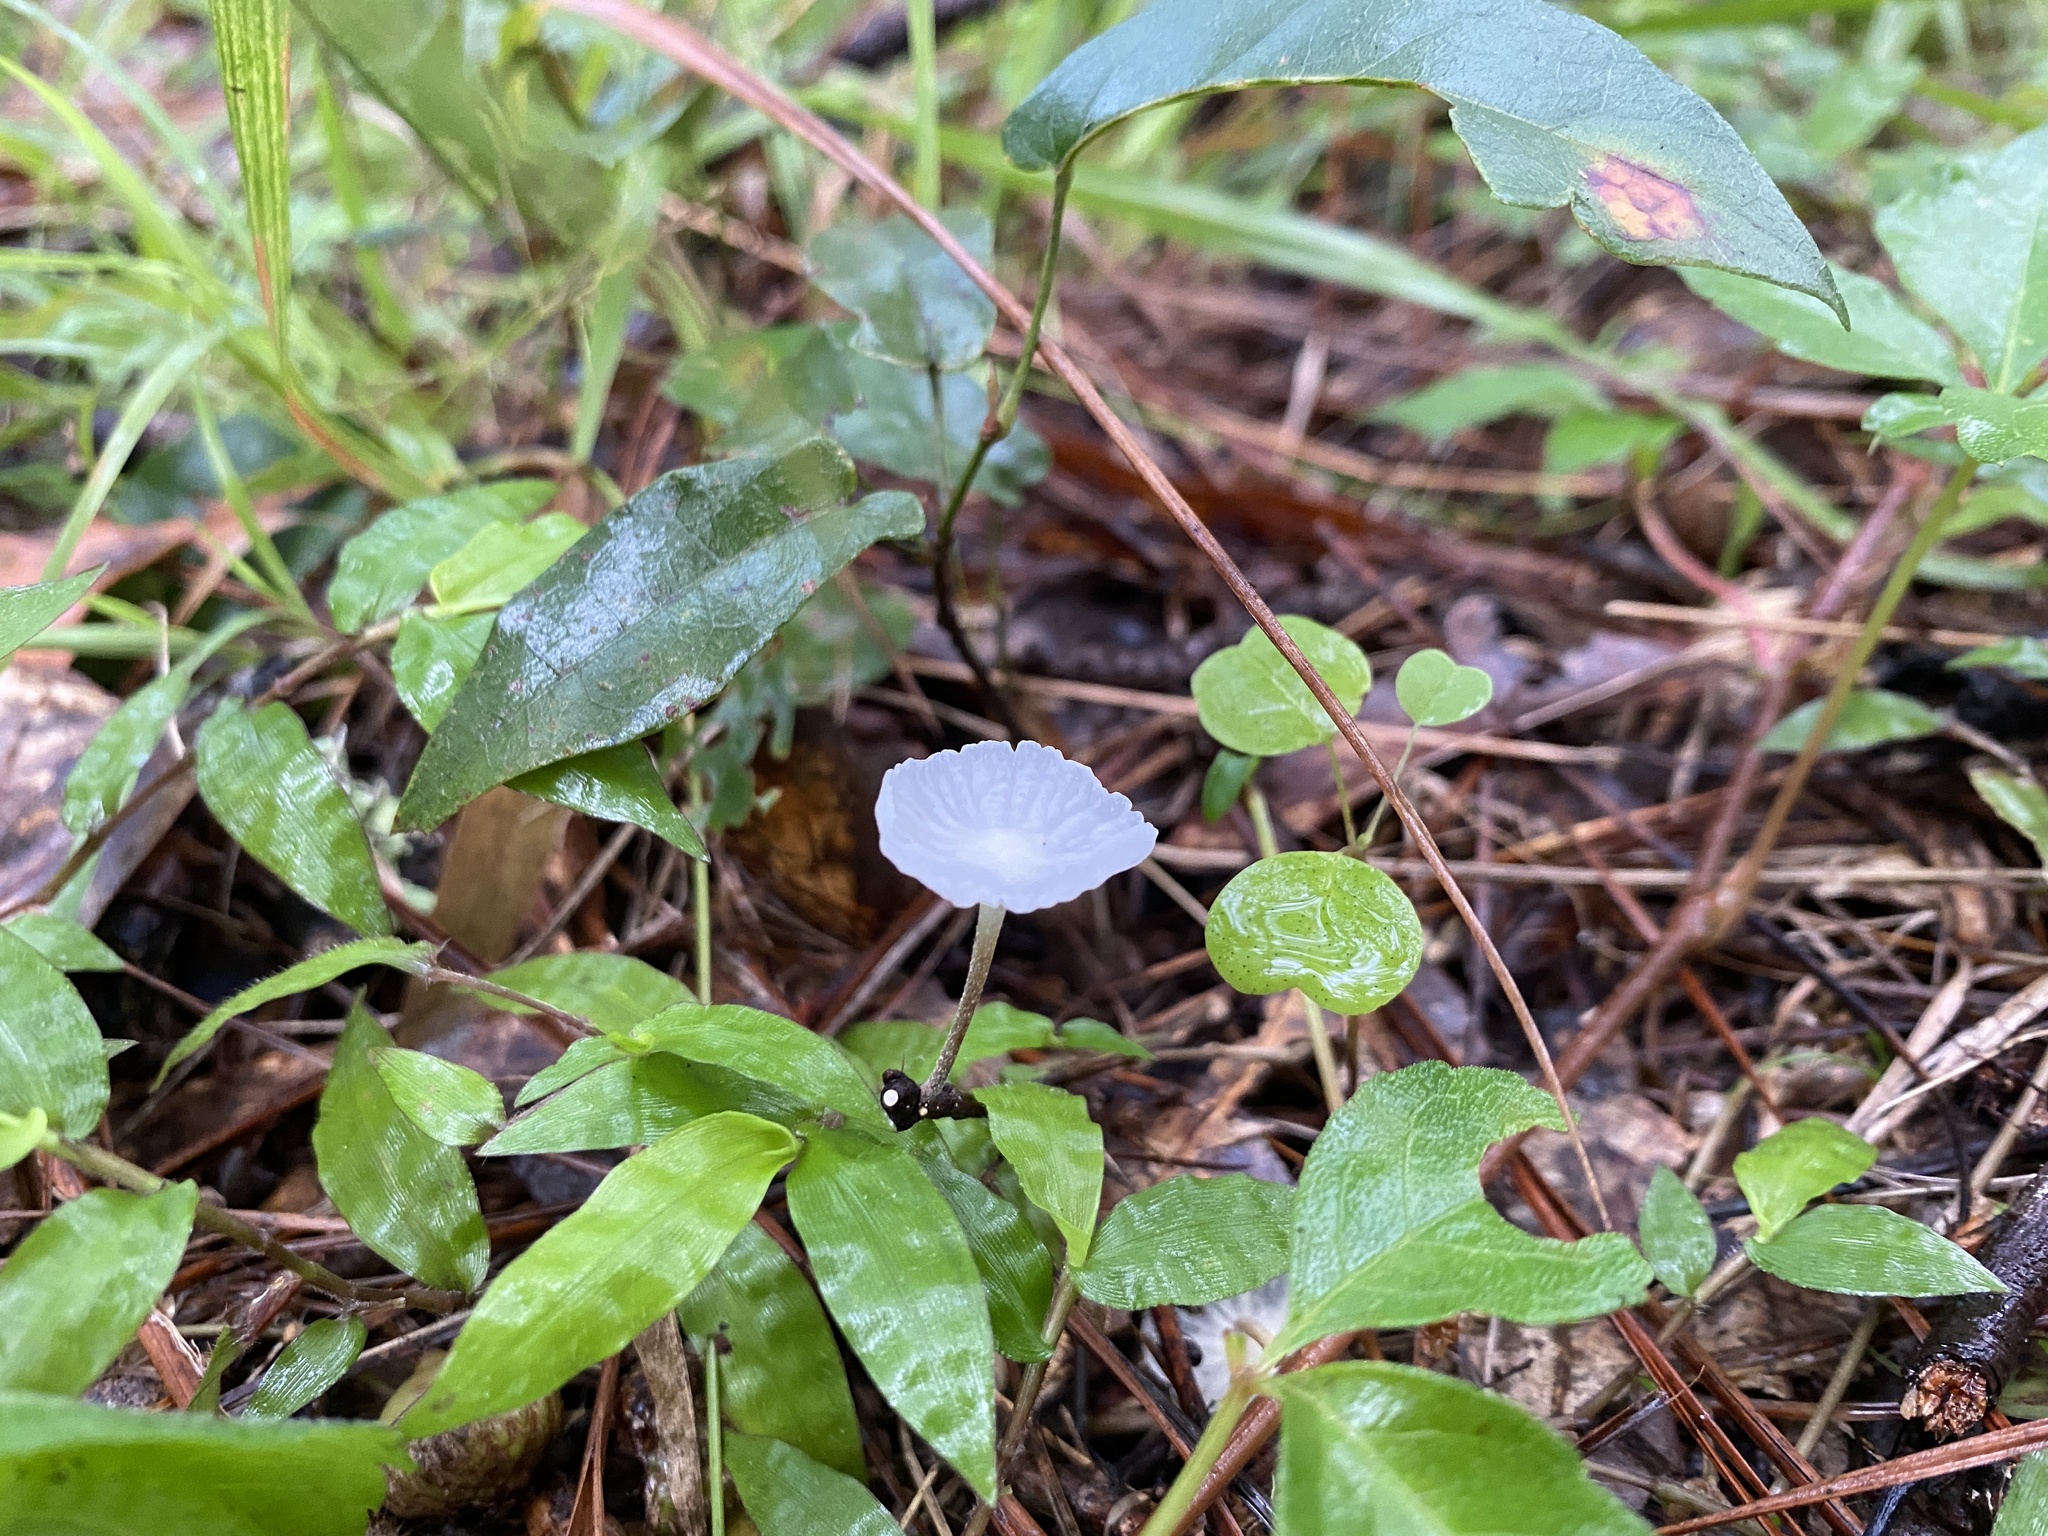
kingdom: Fungi
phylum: Basidiomycota
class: Agaricomycetes
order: Agaricales
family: Marasmiaceae
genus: Tetrapyrgos
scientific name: Tetrapyrgos nigripes
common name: Black-stalked marasmius
